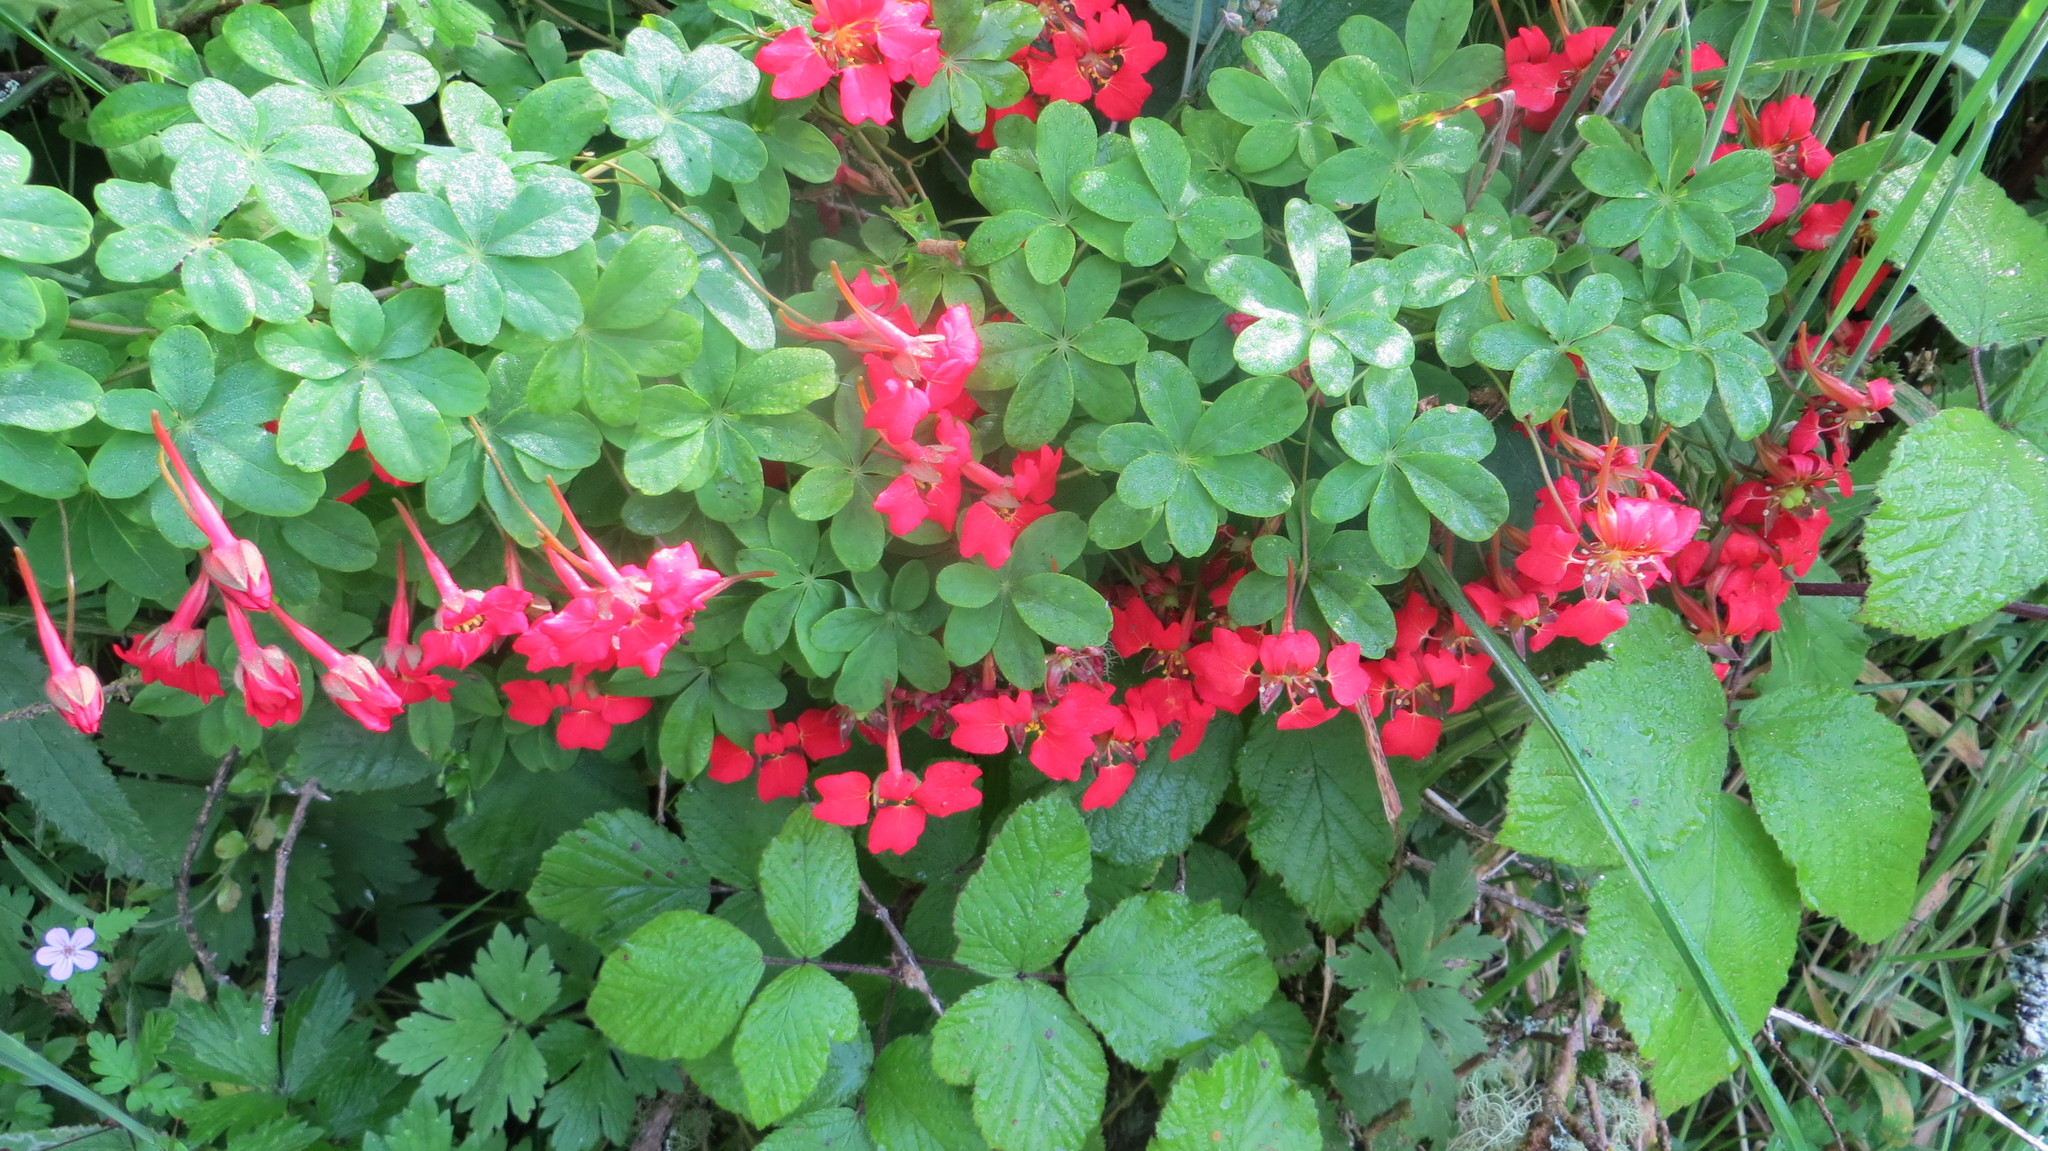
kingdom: Plantae
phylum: Tracheophyta
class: Magnoliopsida
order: Brassicales
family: Tropaeolaceae
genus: Tropaeolum
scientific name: Tropaeolum speciosum
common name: Flame nasturtium
